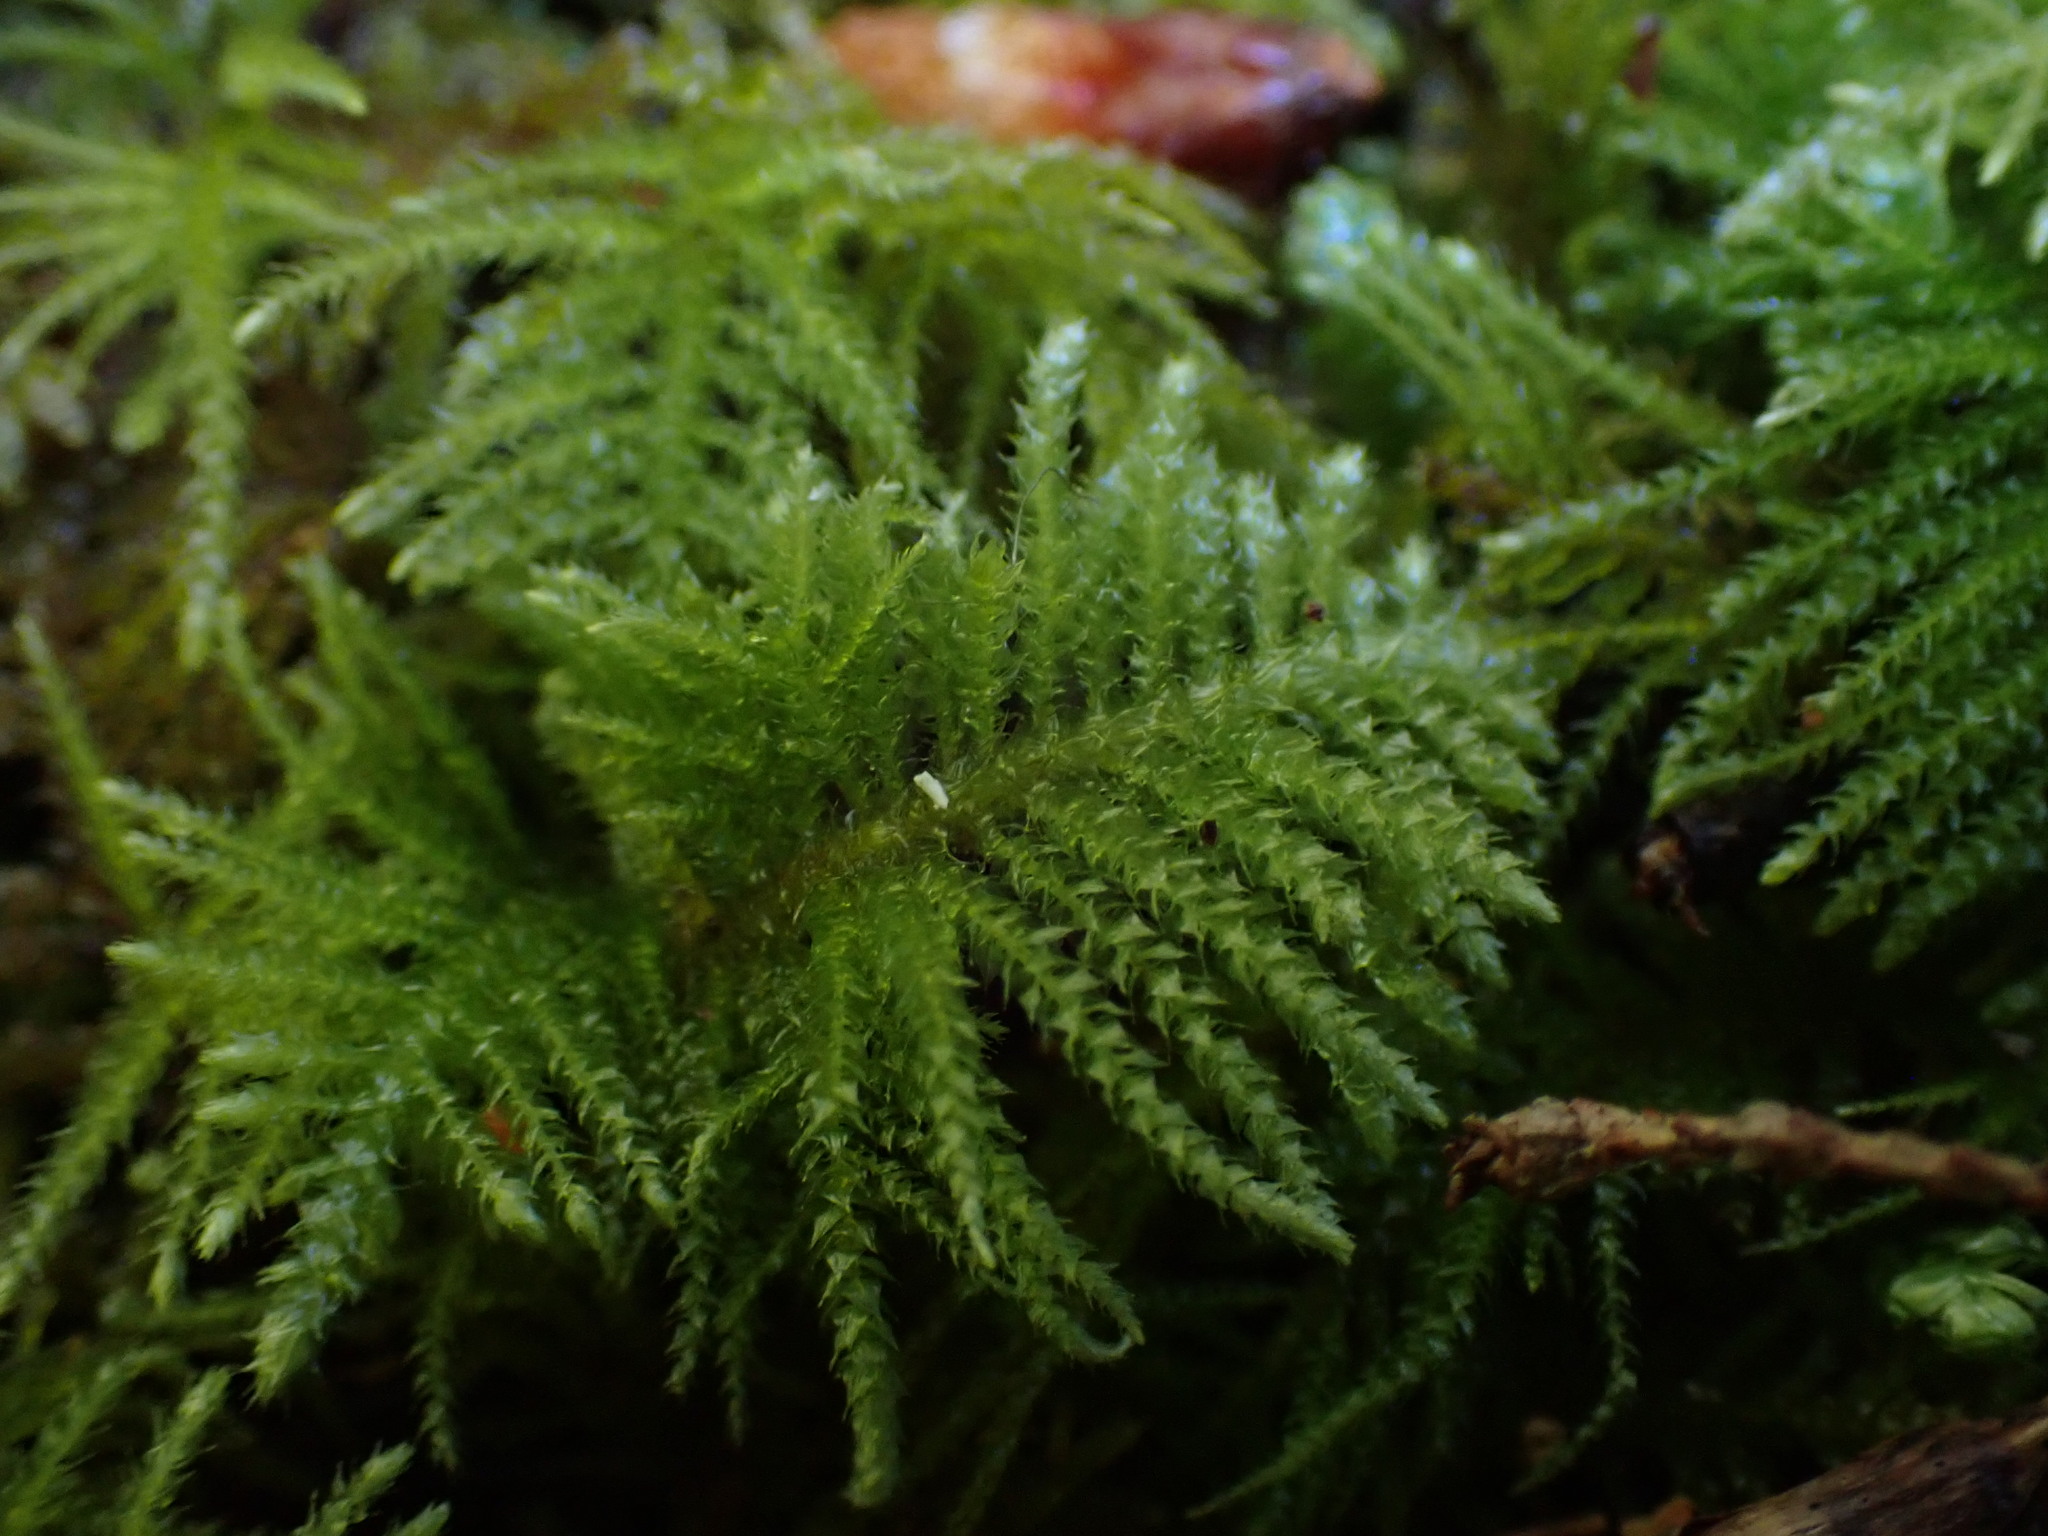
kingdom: Plantae
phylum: Bryophyta
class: Bryopsida
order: Hypnales
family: Brachytheciaceae
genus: Kindbergia
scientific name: Kindbergia oregana
